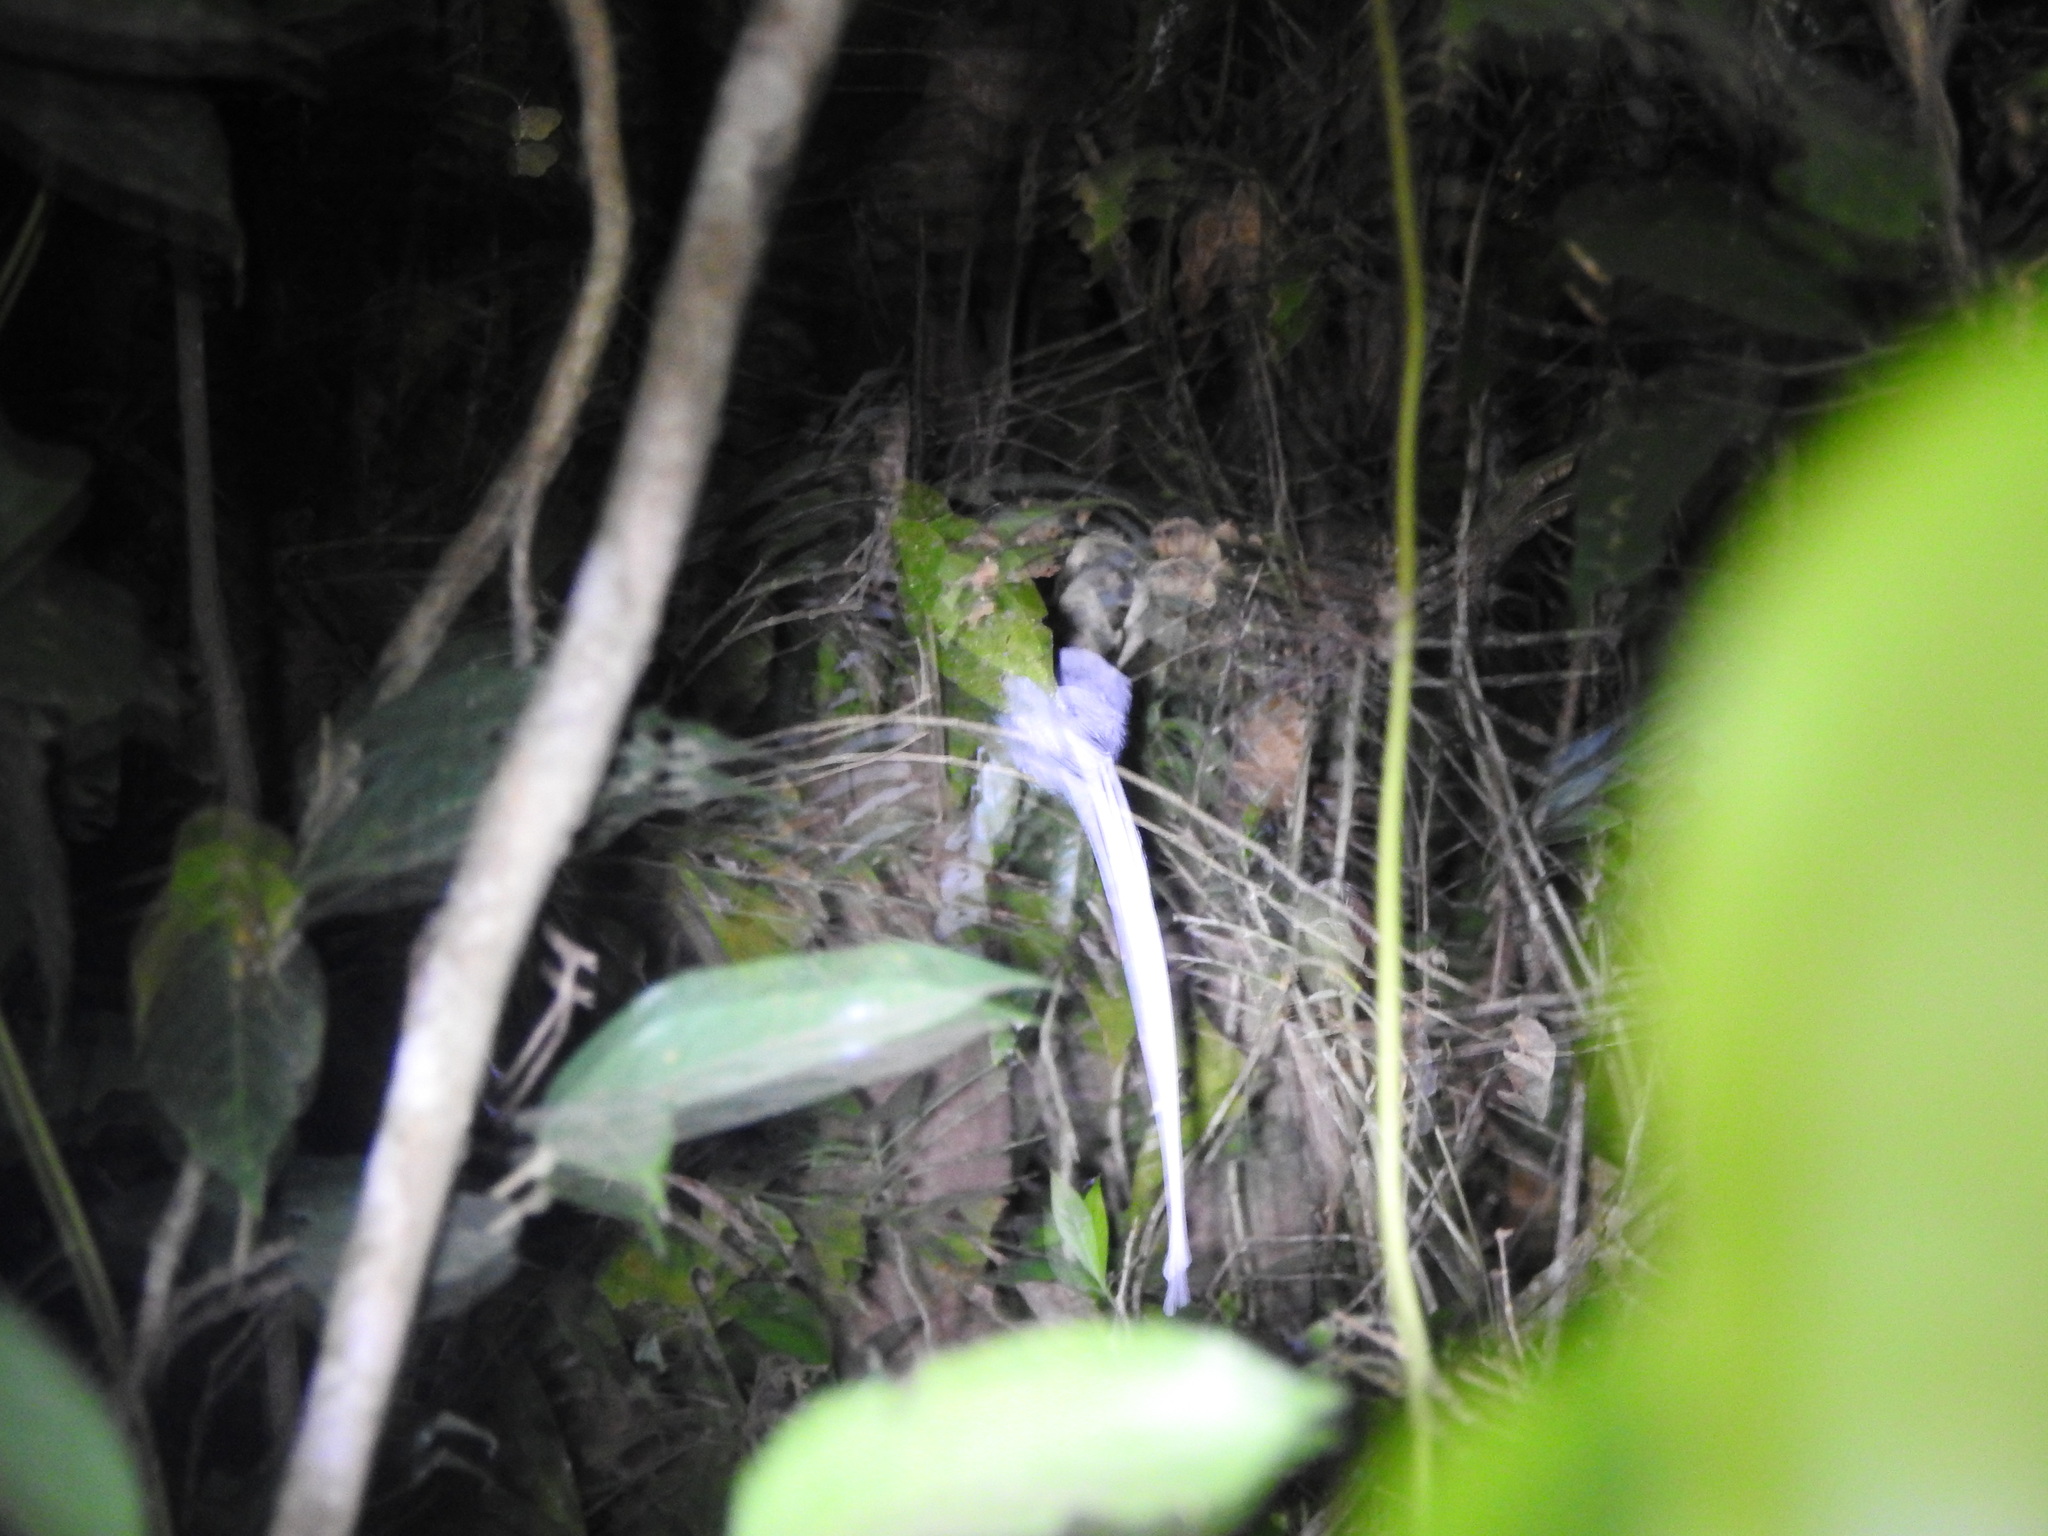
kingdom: Animalia
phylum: Chordata
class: Aves
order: Passeriformes
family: Monarchidae
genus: Terpsiphone
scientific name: Terpsiphone paradisi
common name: Indian paradise flycatcher
